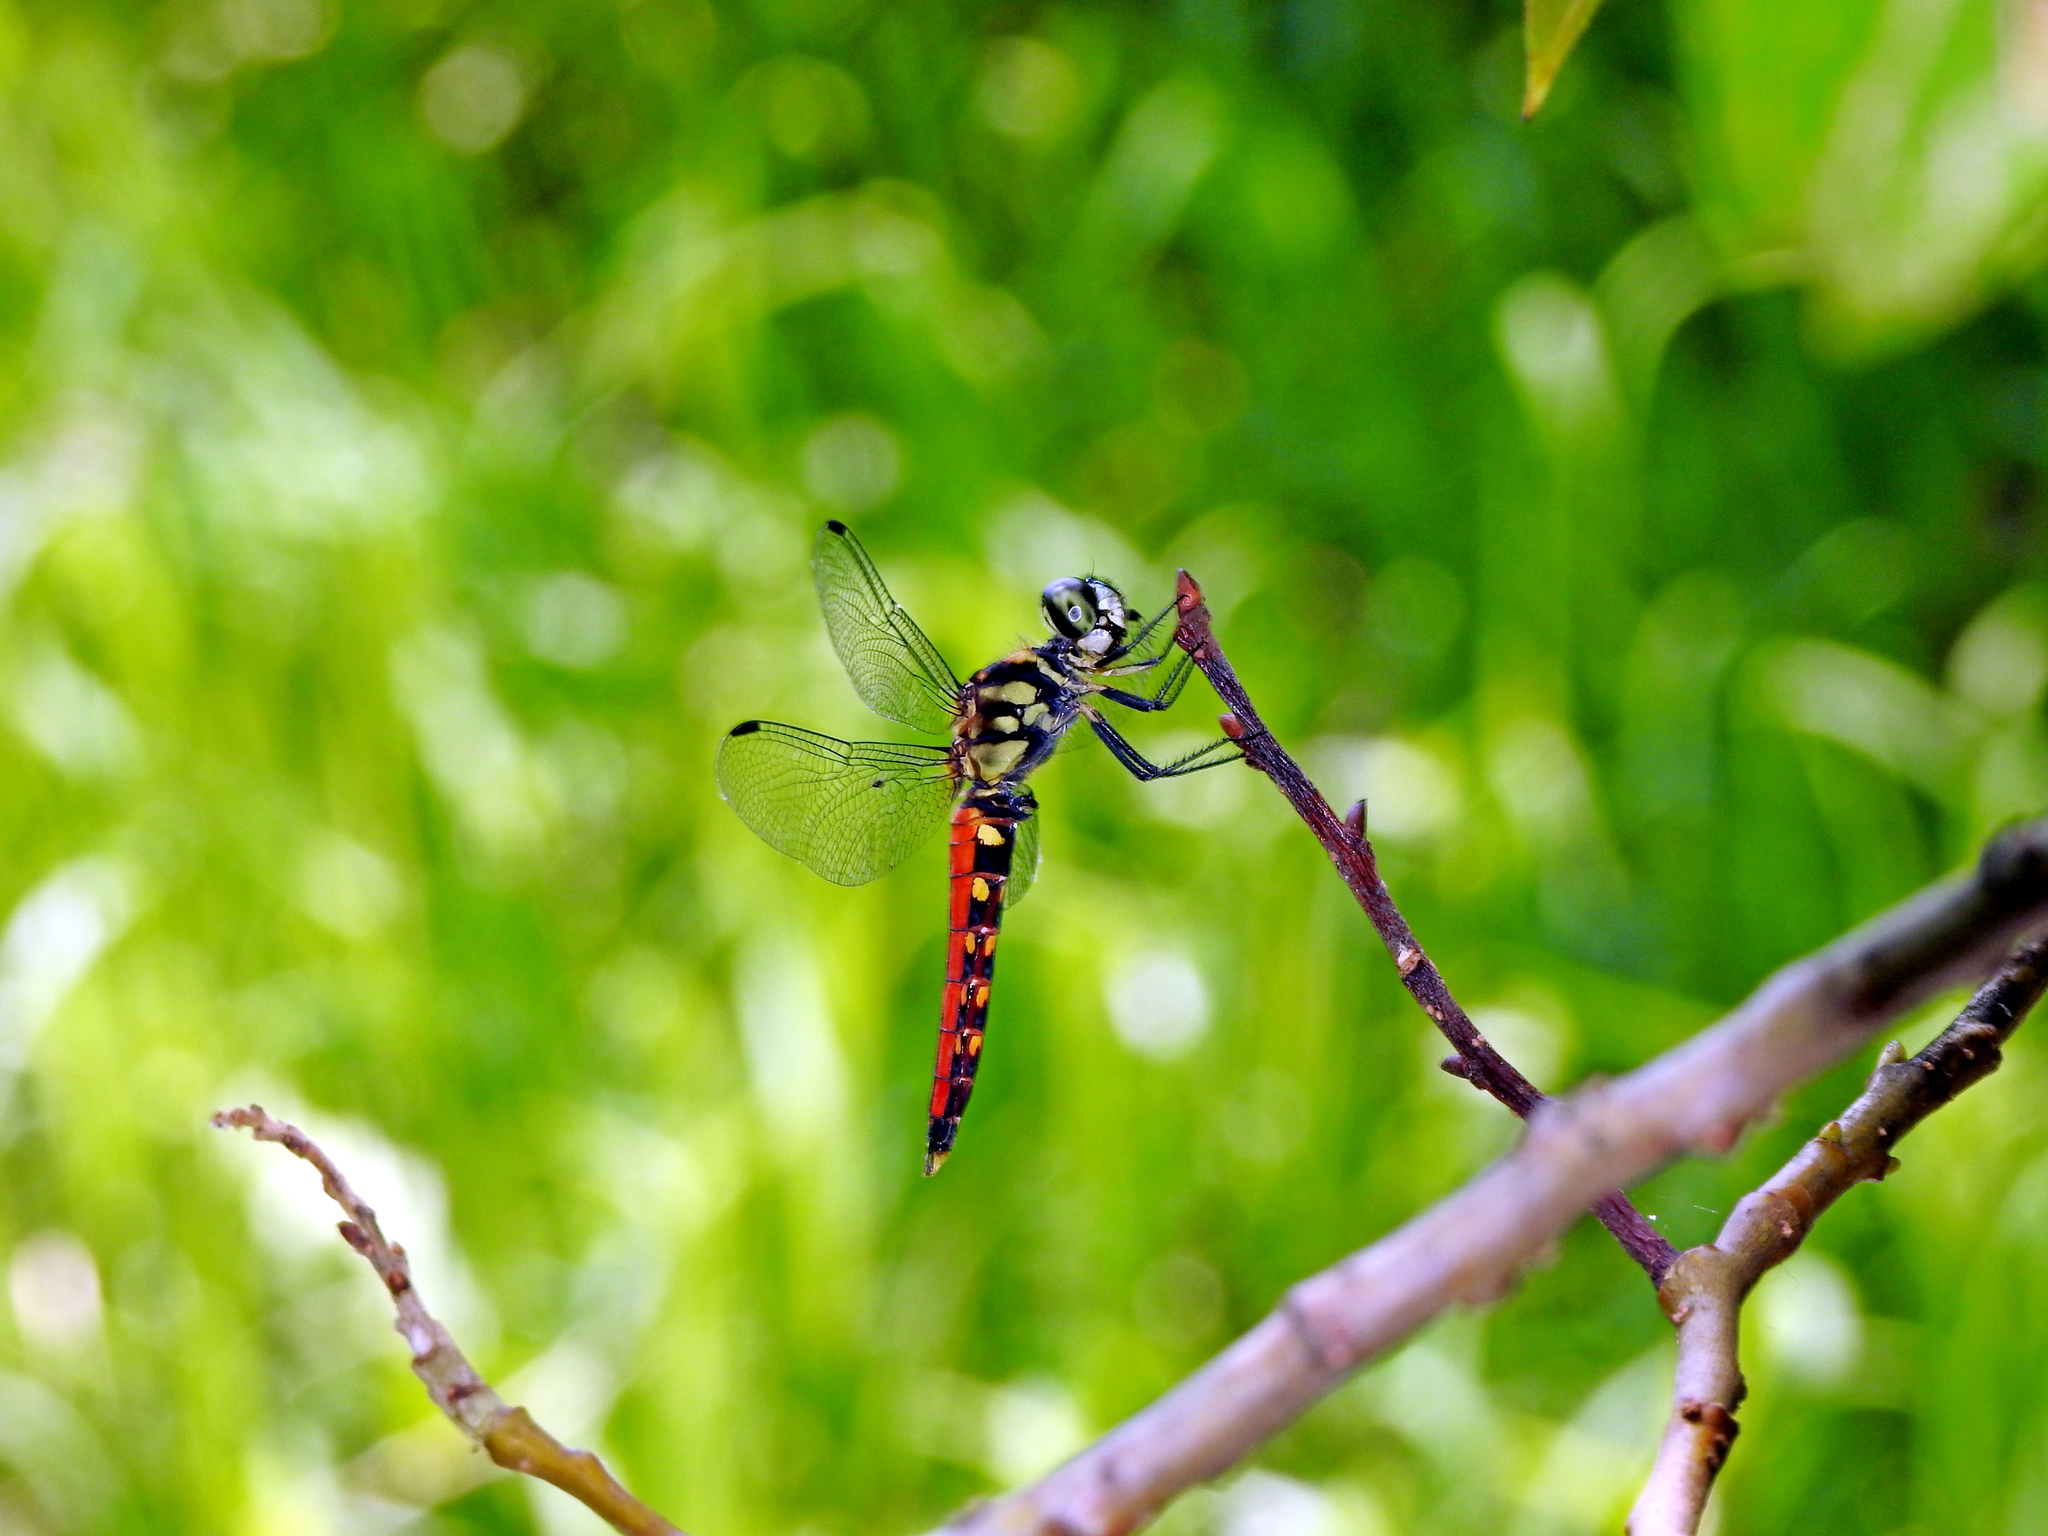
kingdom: Animalia
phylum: Arthropoda
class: Insecta
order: Odonata
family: Libellulidae
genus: Lyriothemis
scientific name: Lyriothemis elegantissima
